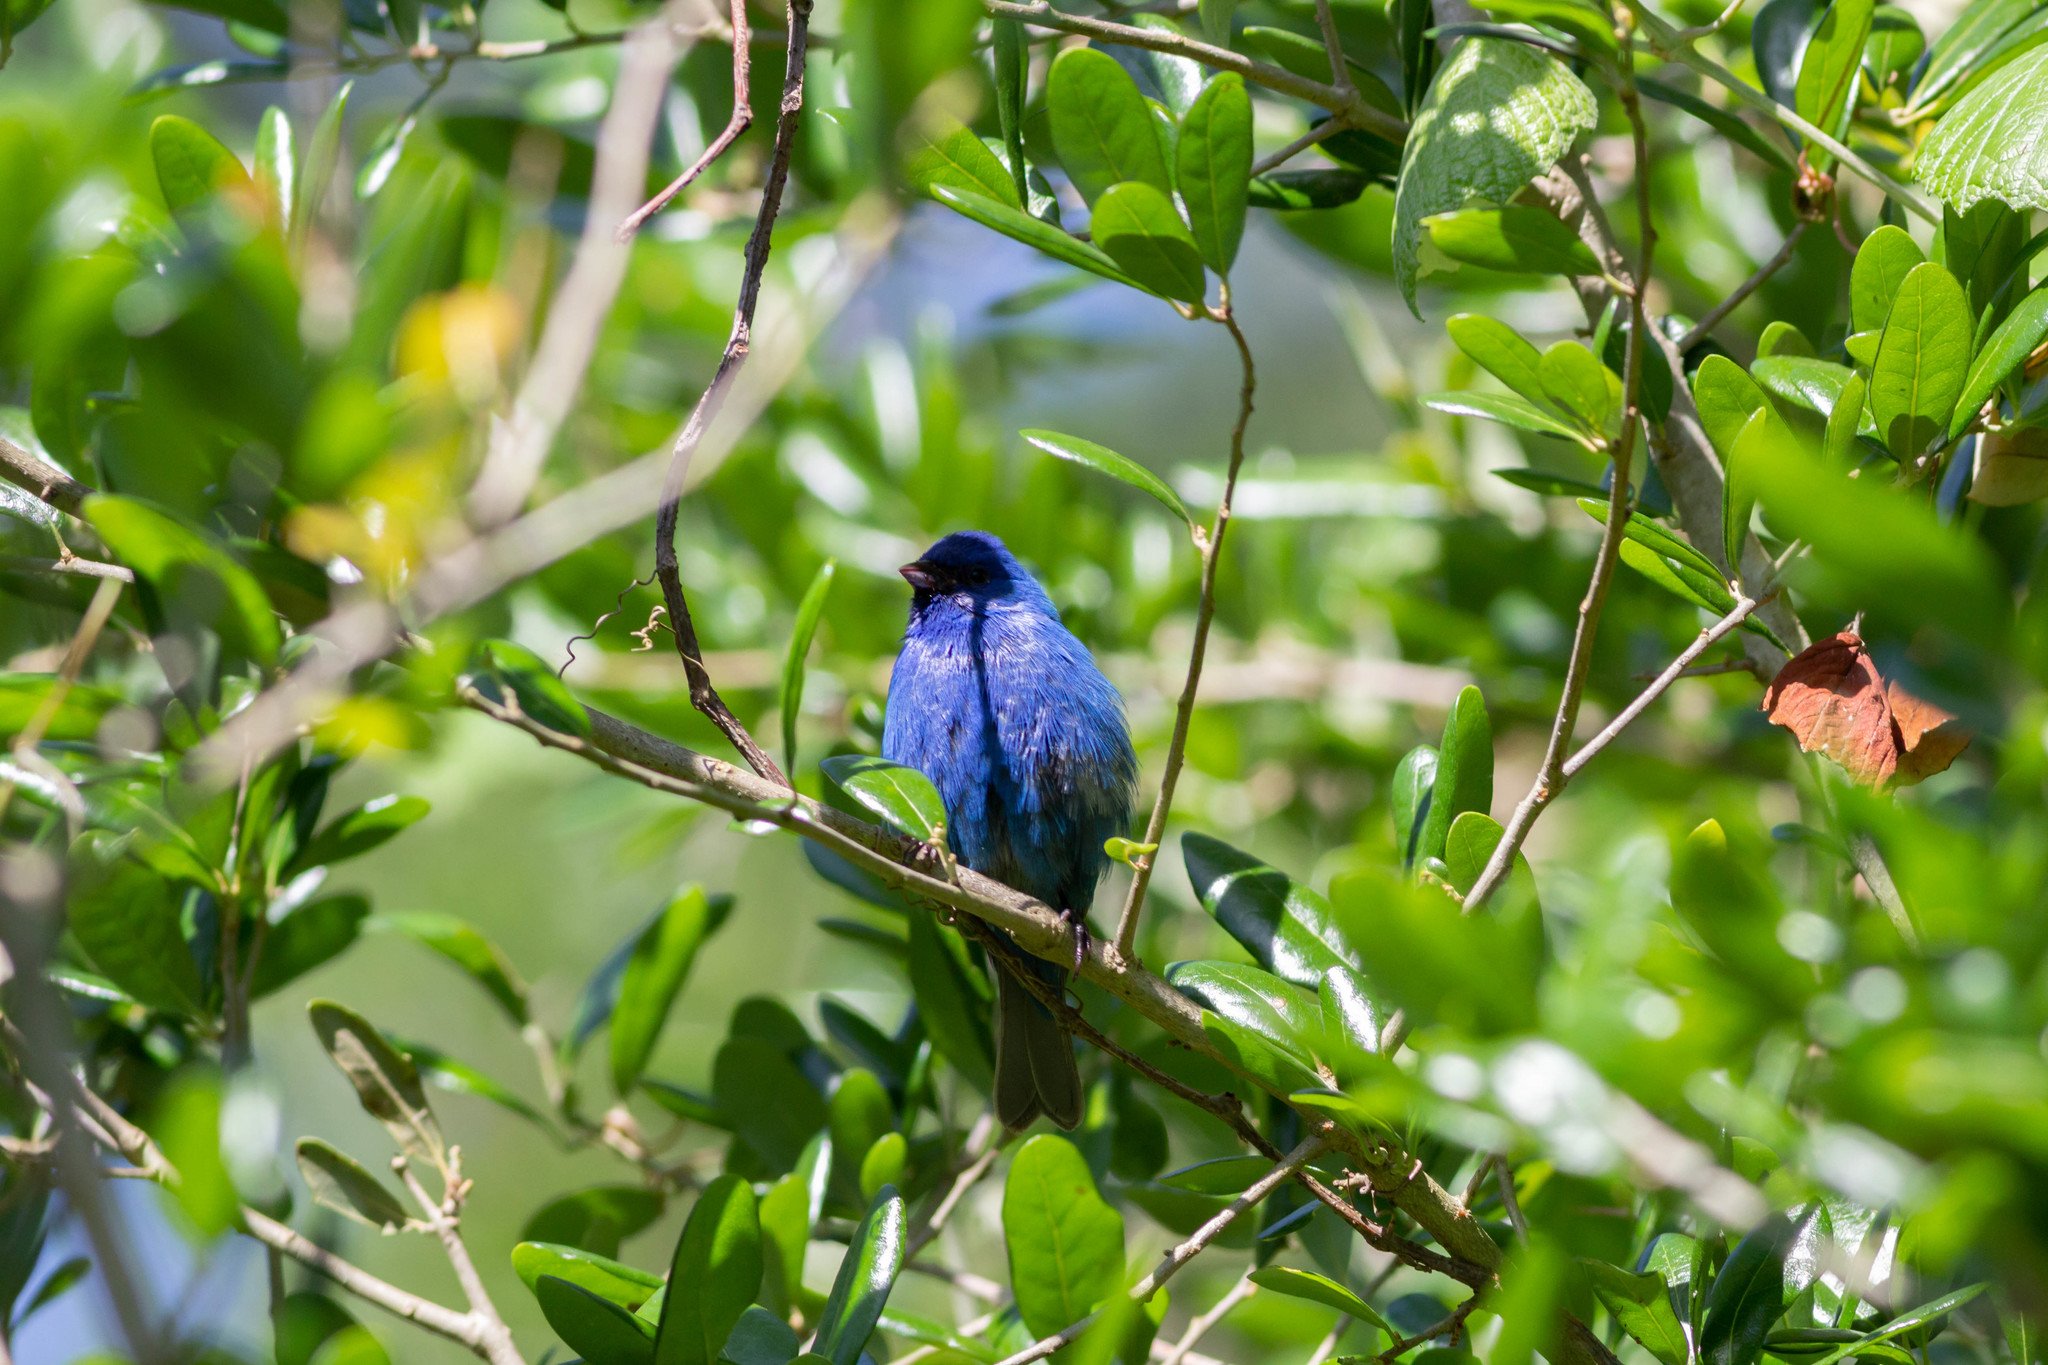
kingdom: Animalia
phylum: Chordata
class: Aves
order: Passeriformes
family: Cardinalidae
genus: Passerina
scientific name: Passerina cyanea
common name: Indigo bunting
